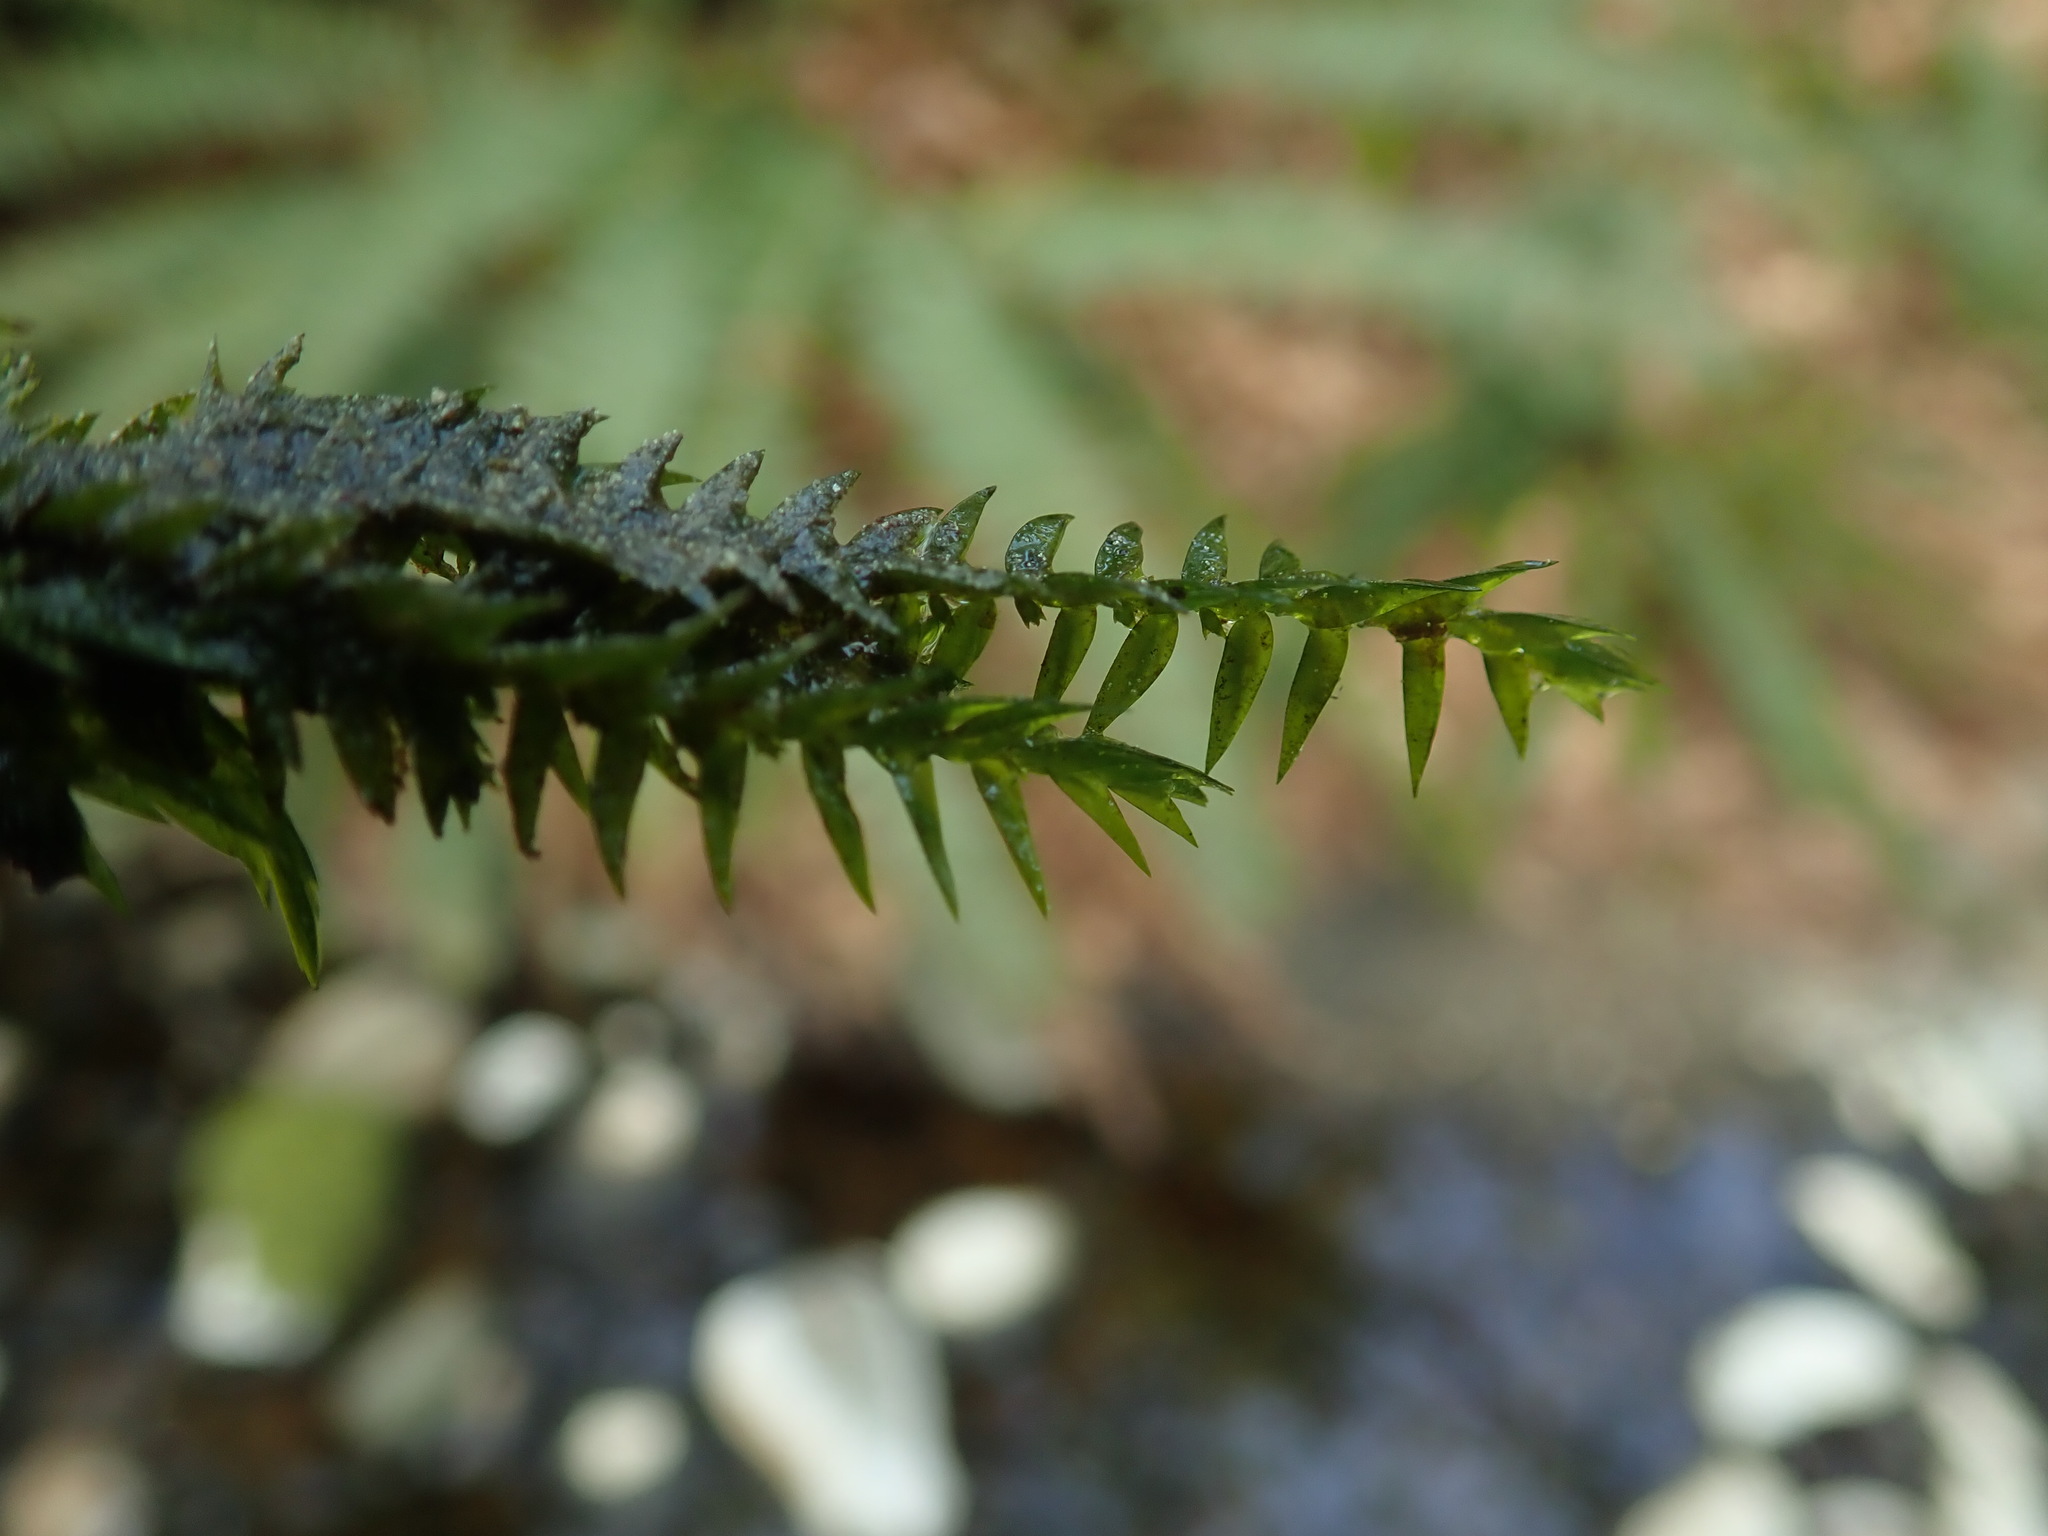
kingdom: Plantae
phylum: Bryophyta
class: Bryopsida
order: Hypnales
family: Fontinalaceae
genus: Fontinalis
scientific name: Fontinalis antipyretica
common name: Greater water-moss
